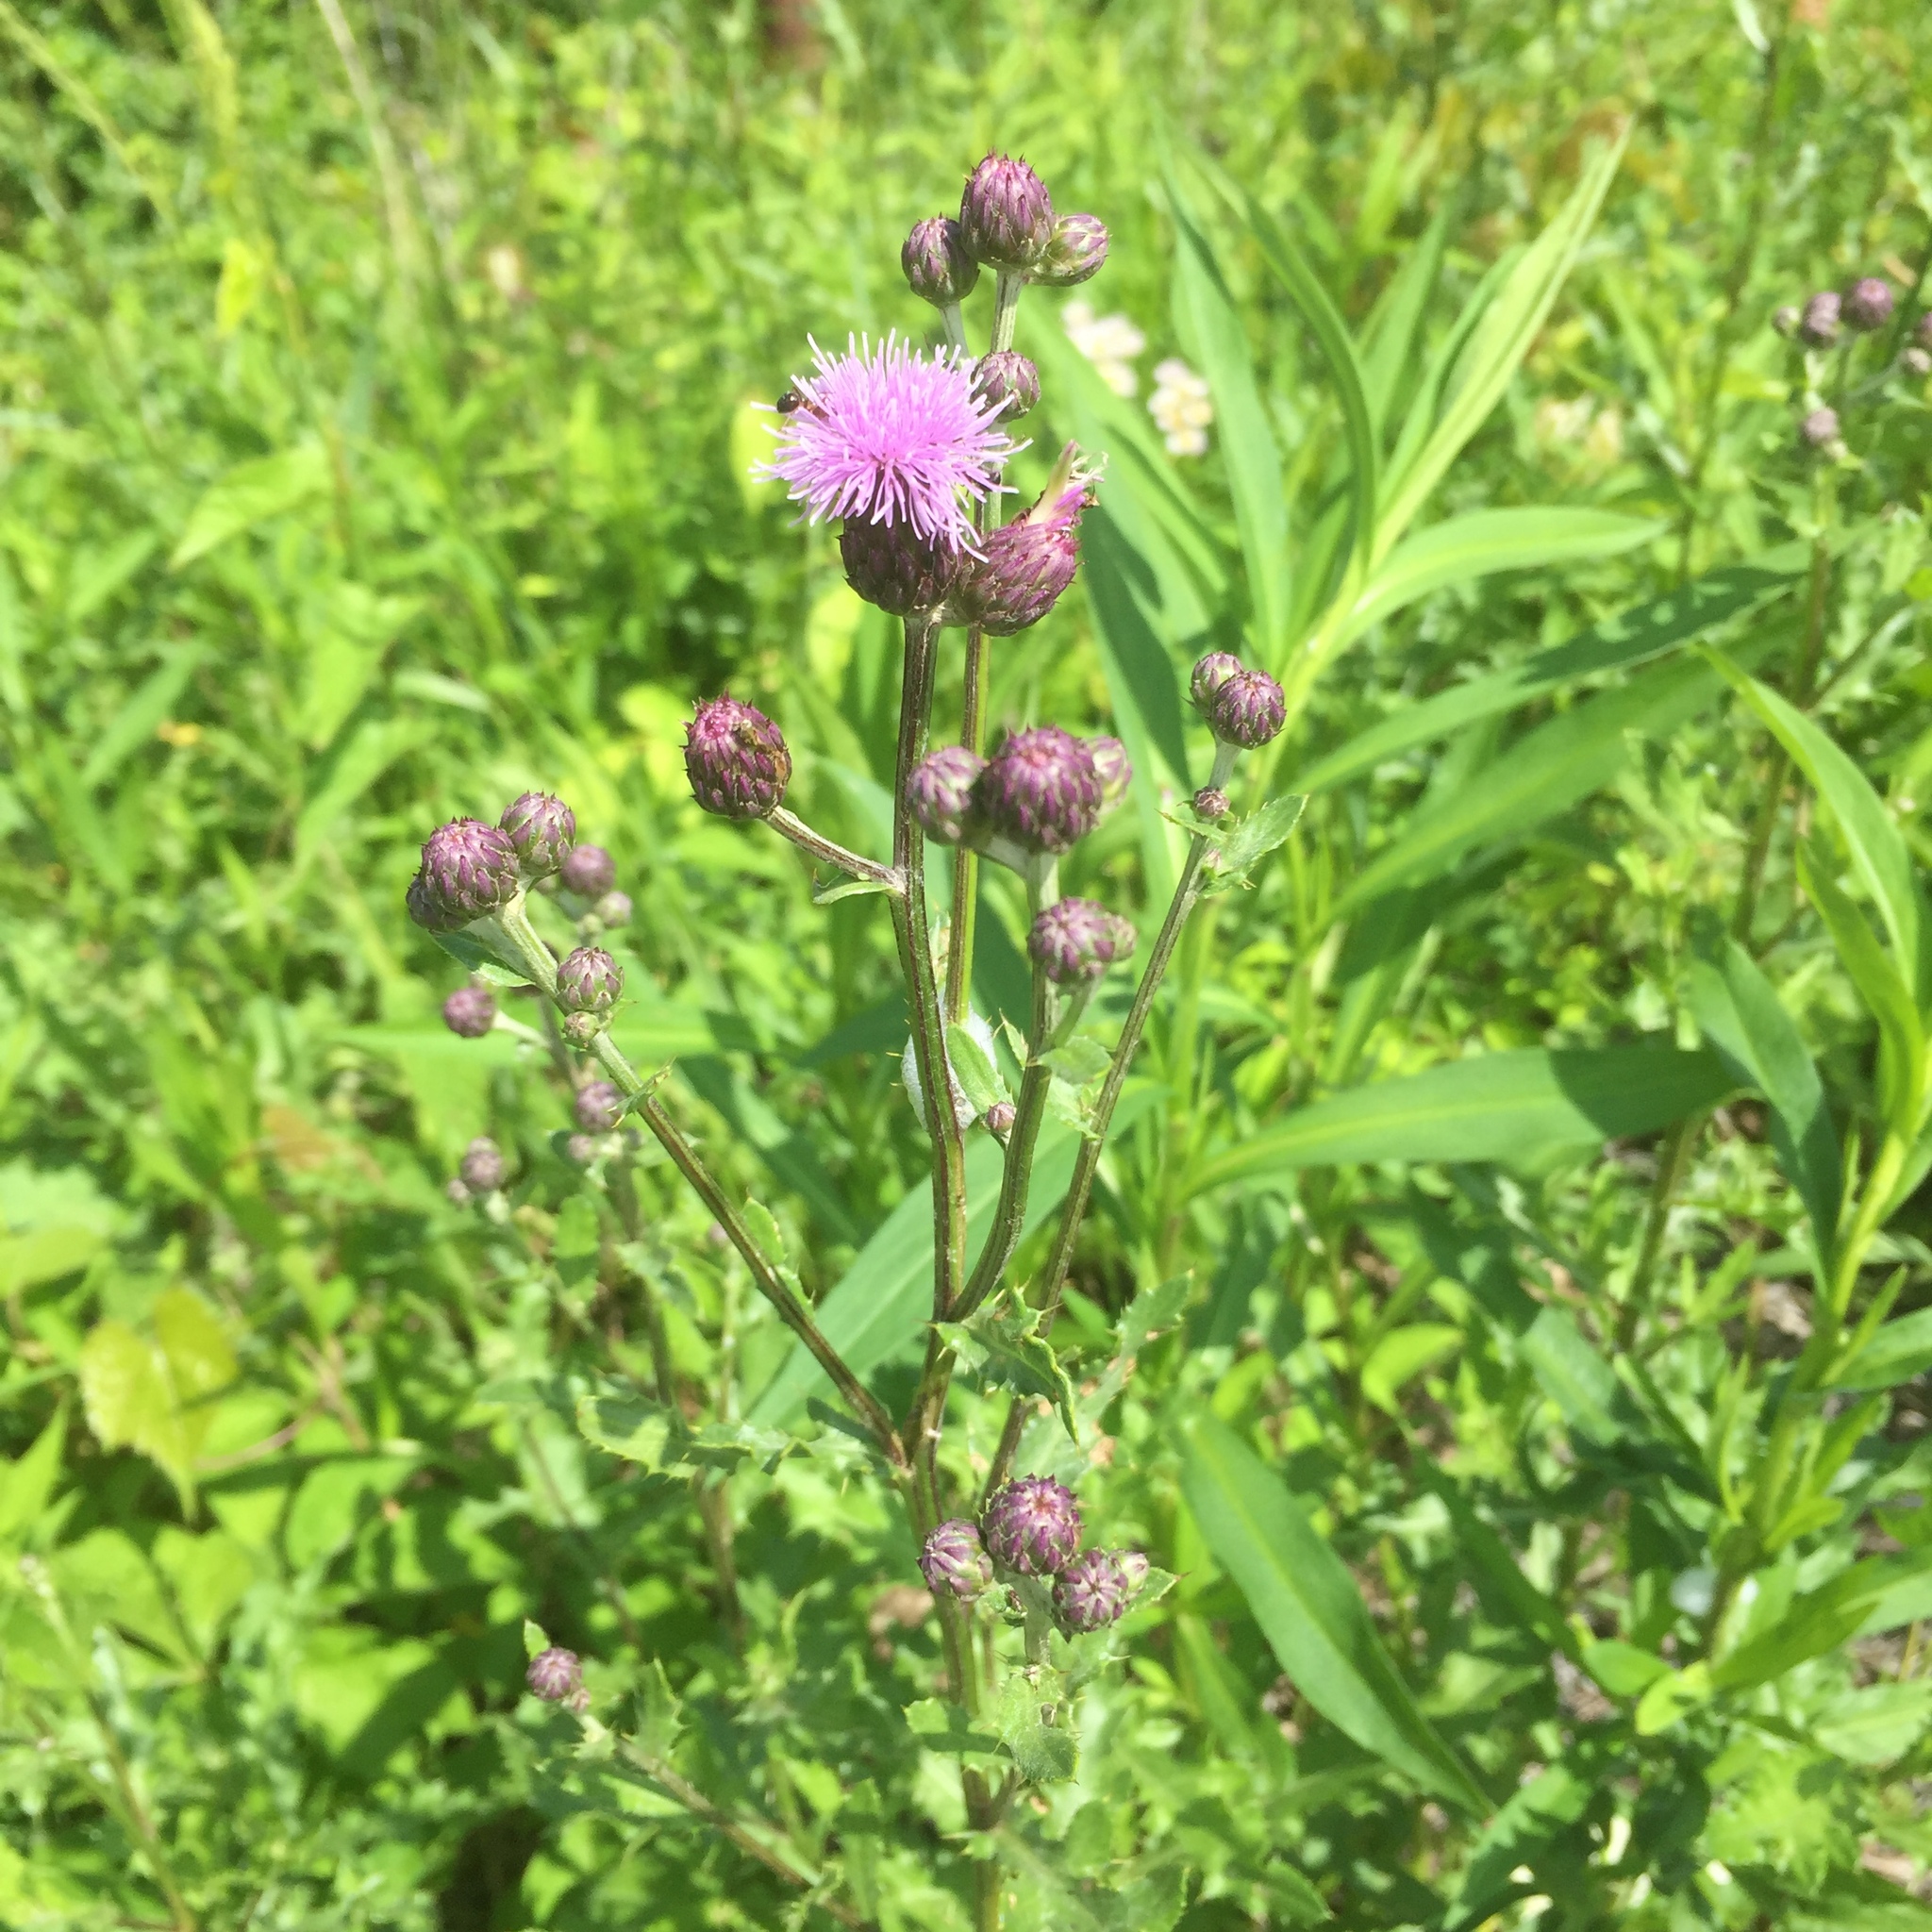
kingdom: Plantae
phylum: Tracheophyta
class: Magnoliopsida
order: Asterales
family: Asteraceae
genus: Cirsium
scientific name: Cirsium arvense
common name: Creeping thistle
